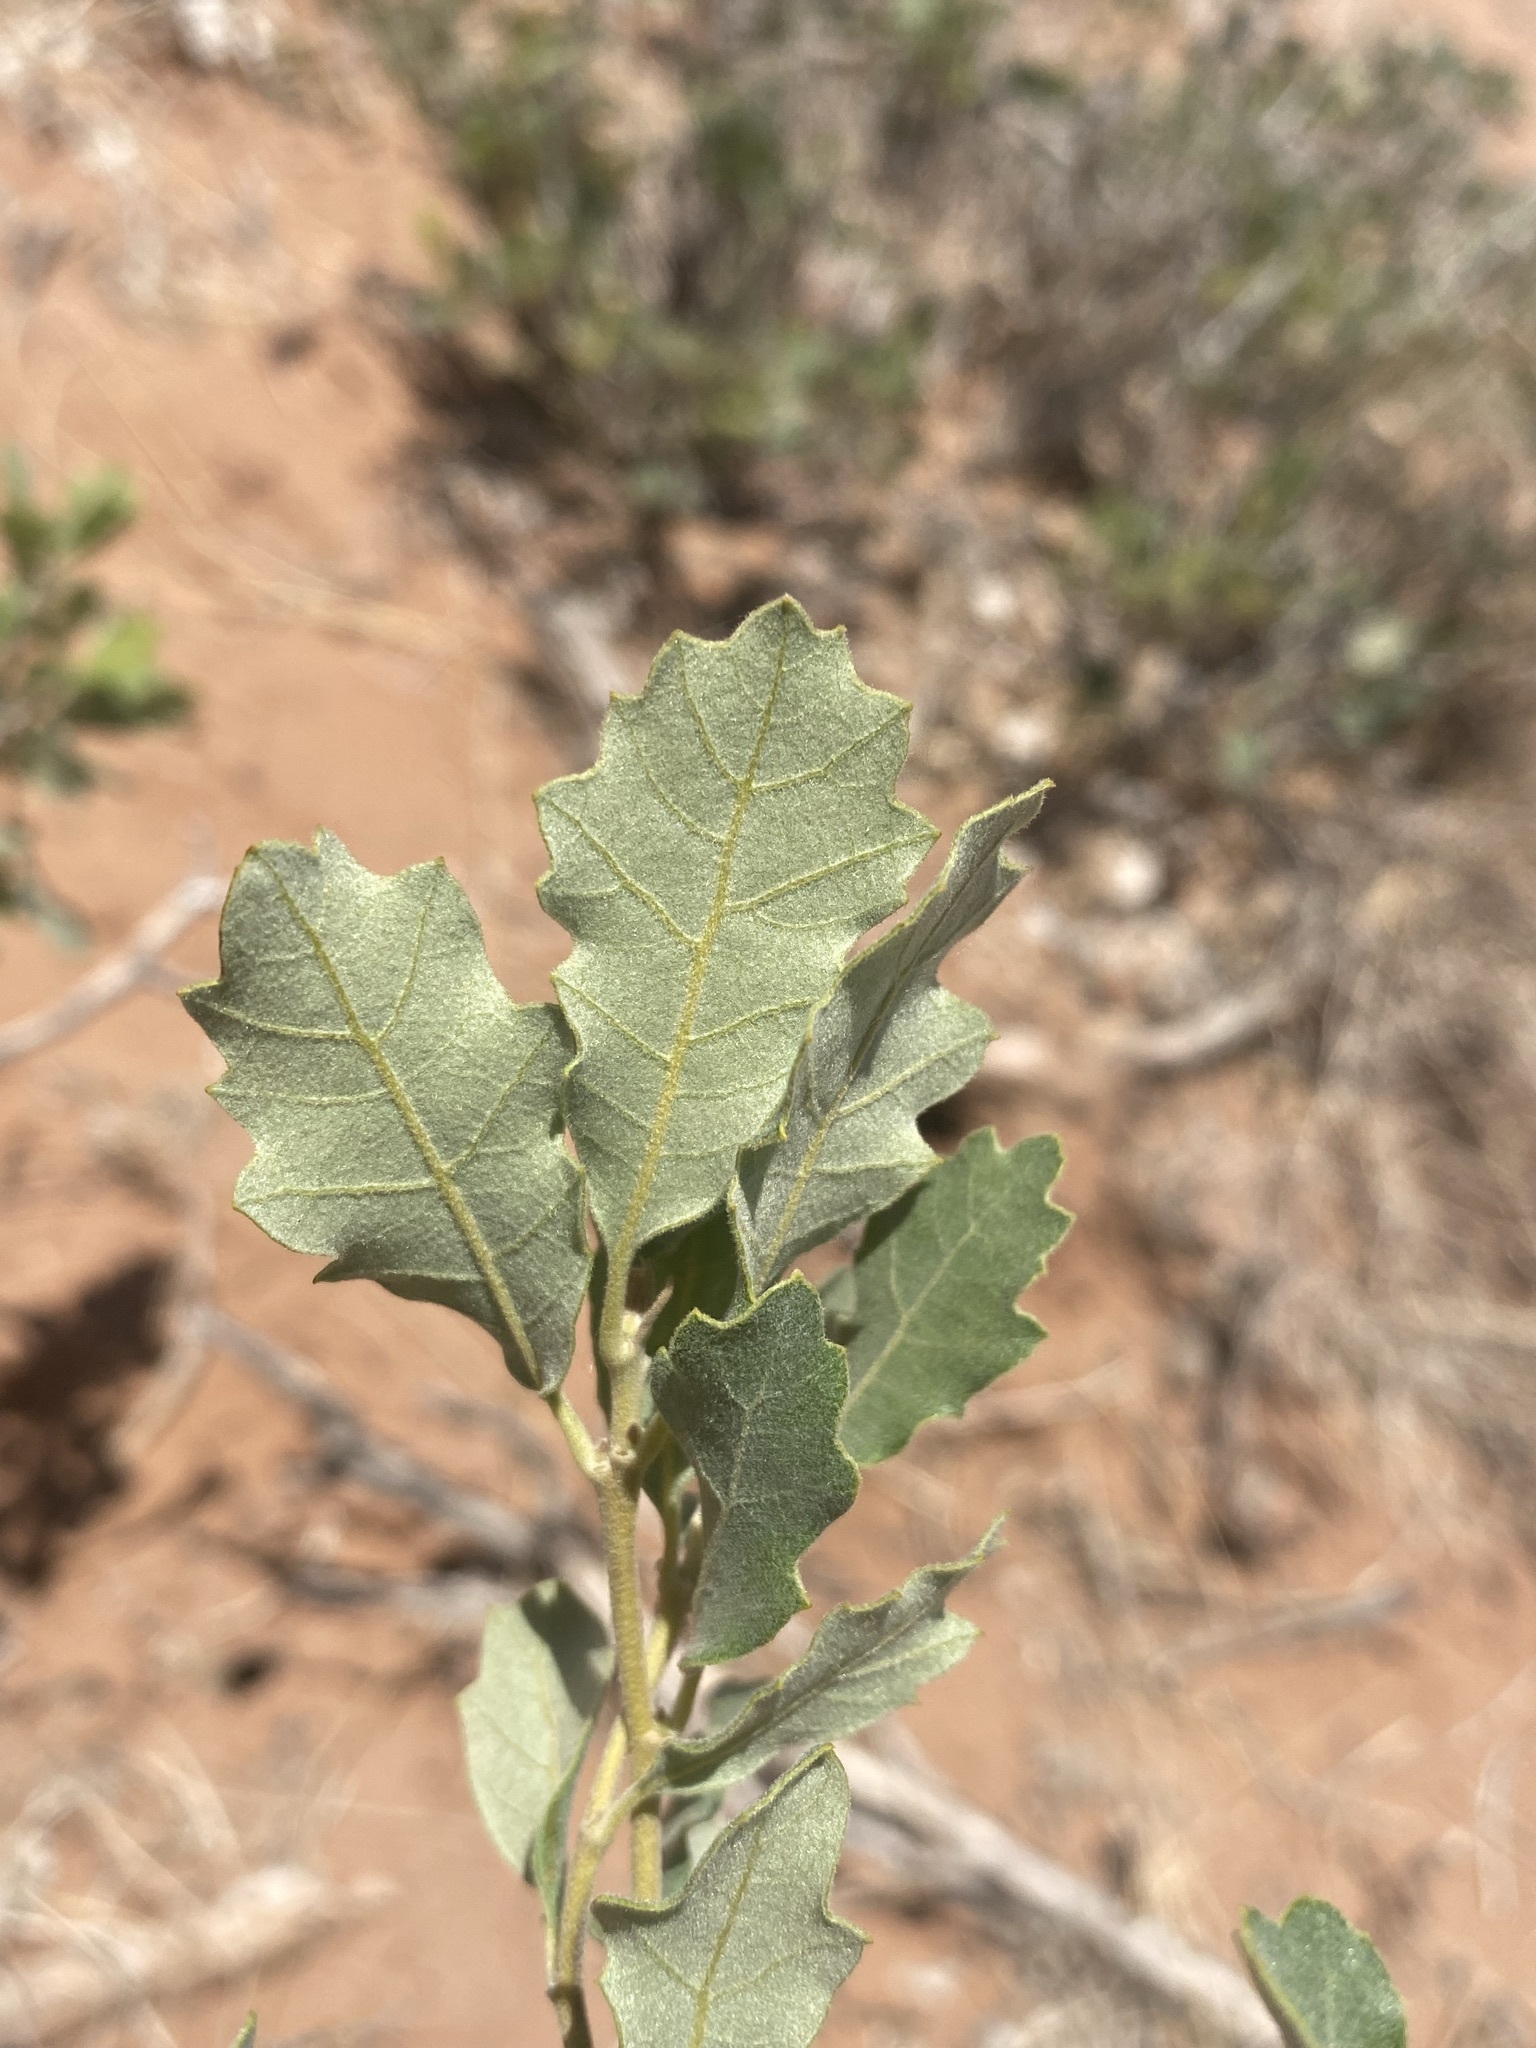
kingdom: Plantae
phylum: Tracheophyta
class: Magnoliopsida
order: Fagales
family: Fagaceae
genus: Quercus
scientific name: Quercus welshii
